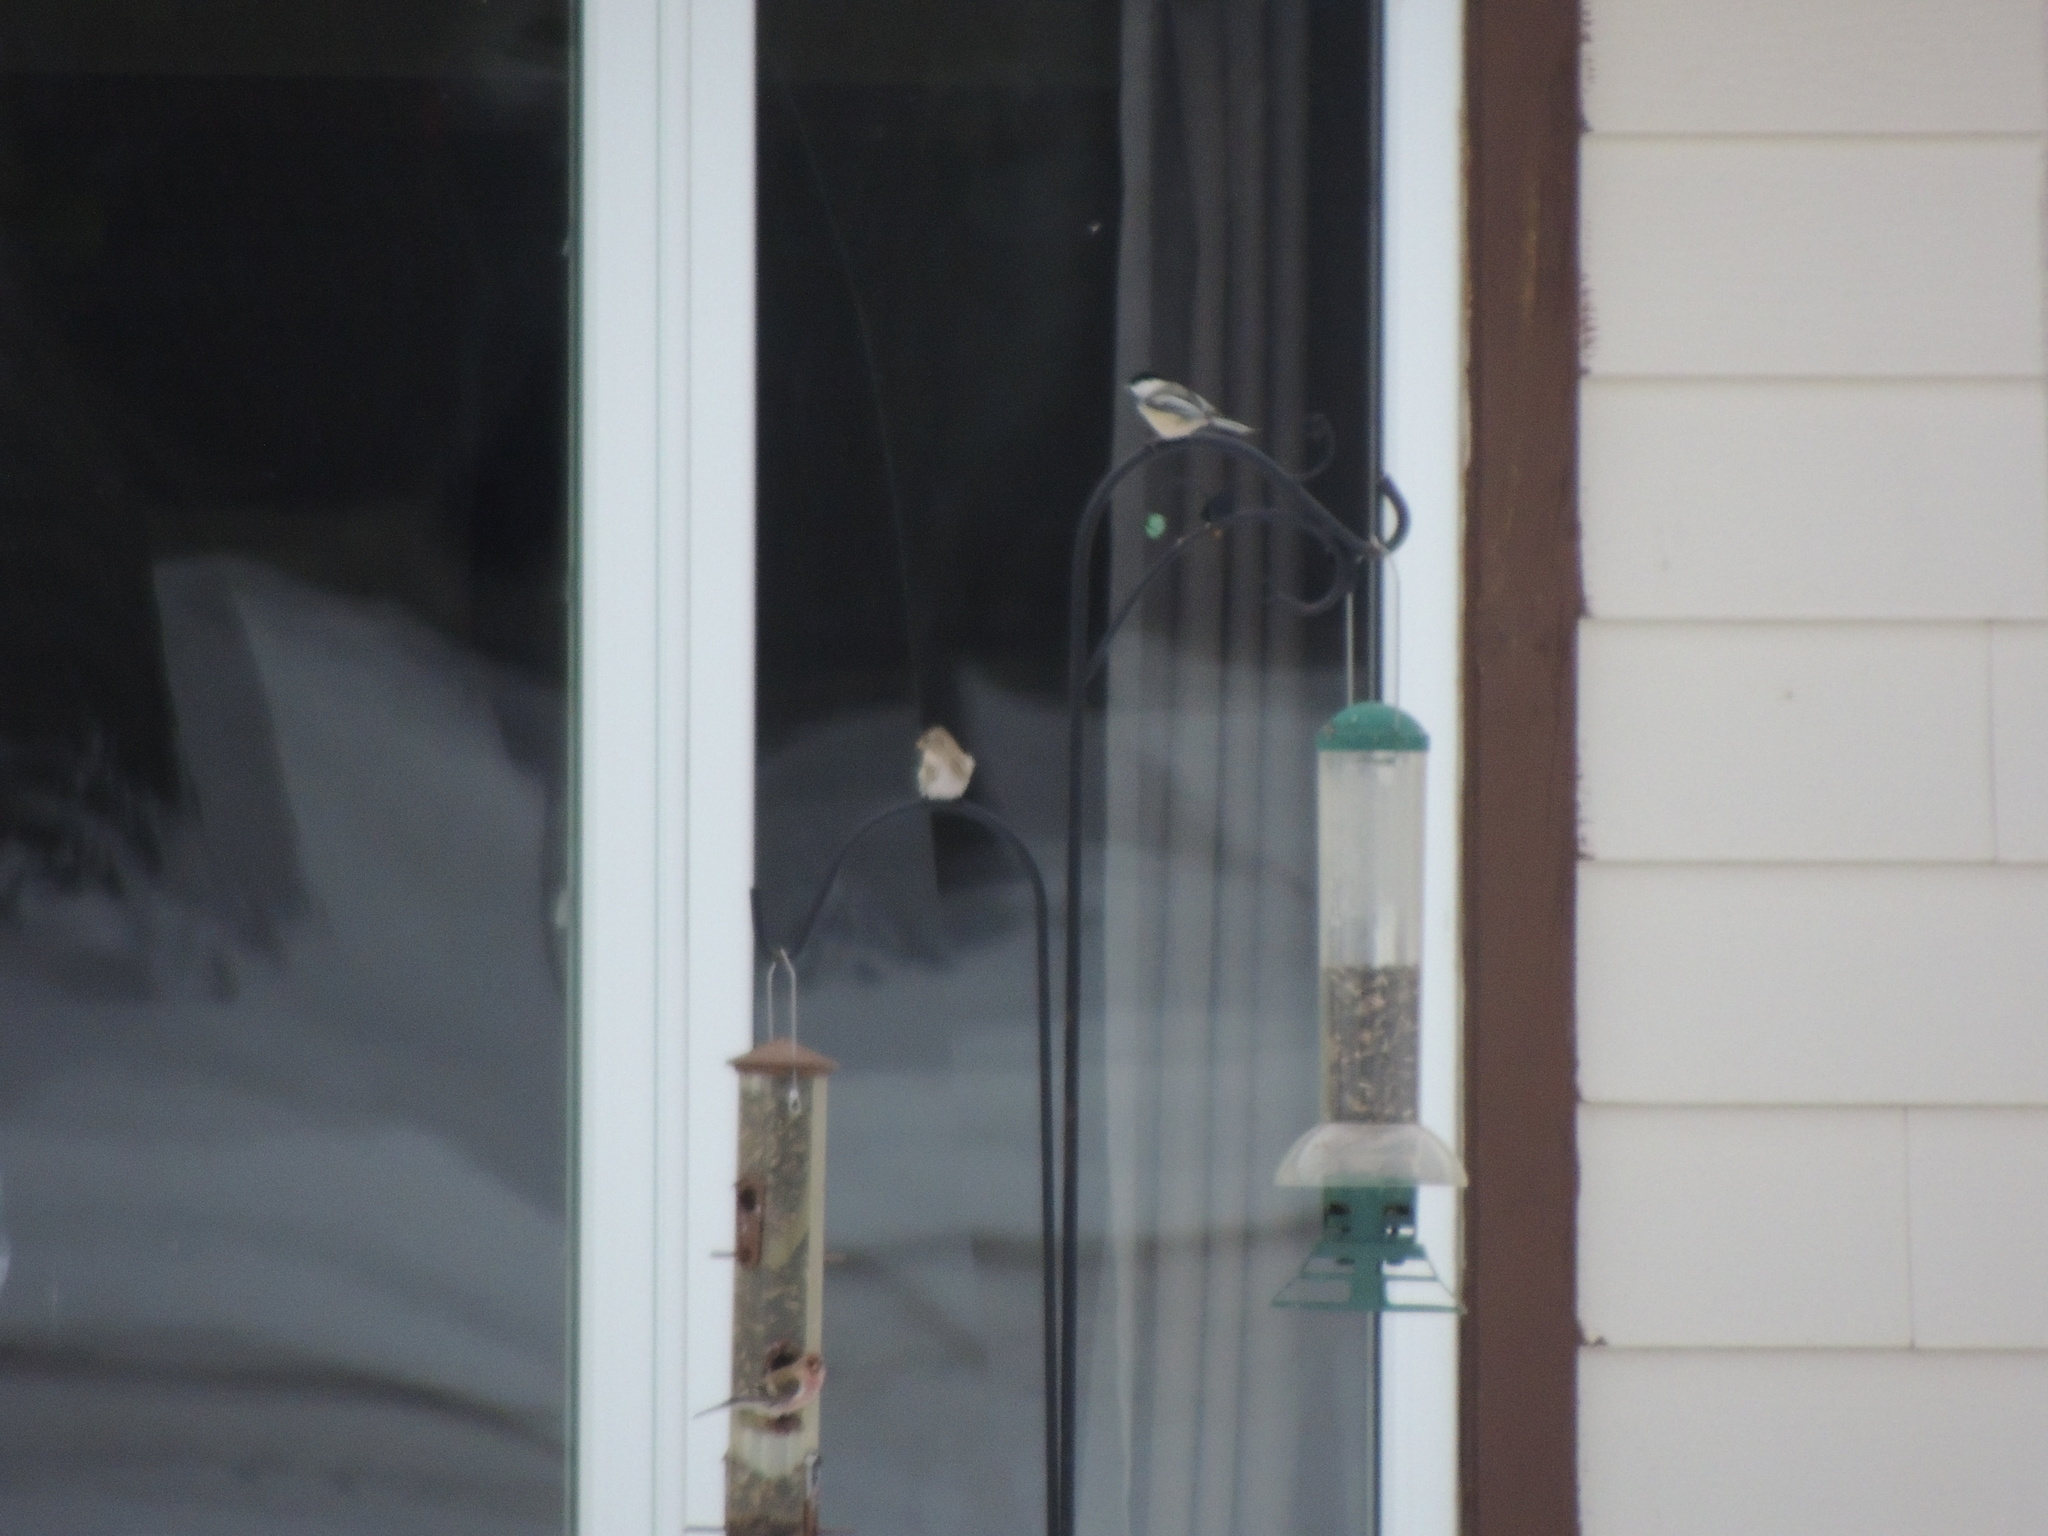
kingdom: Animalia
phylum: Chordata
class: Aves
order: Passeriformes
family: Fringillidae
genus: Acanthis
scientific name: Acanthis flammea
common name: Common redpoll
